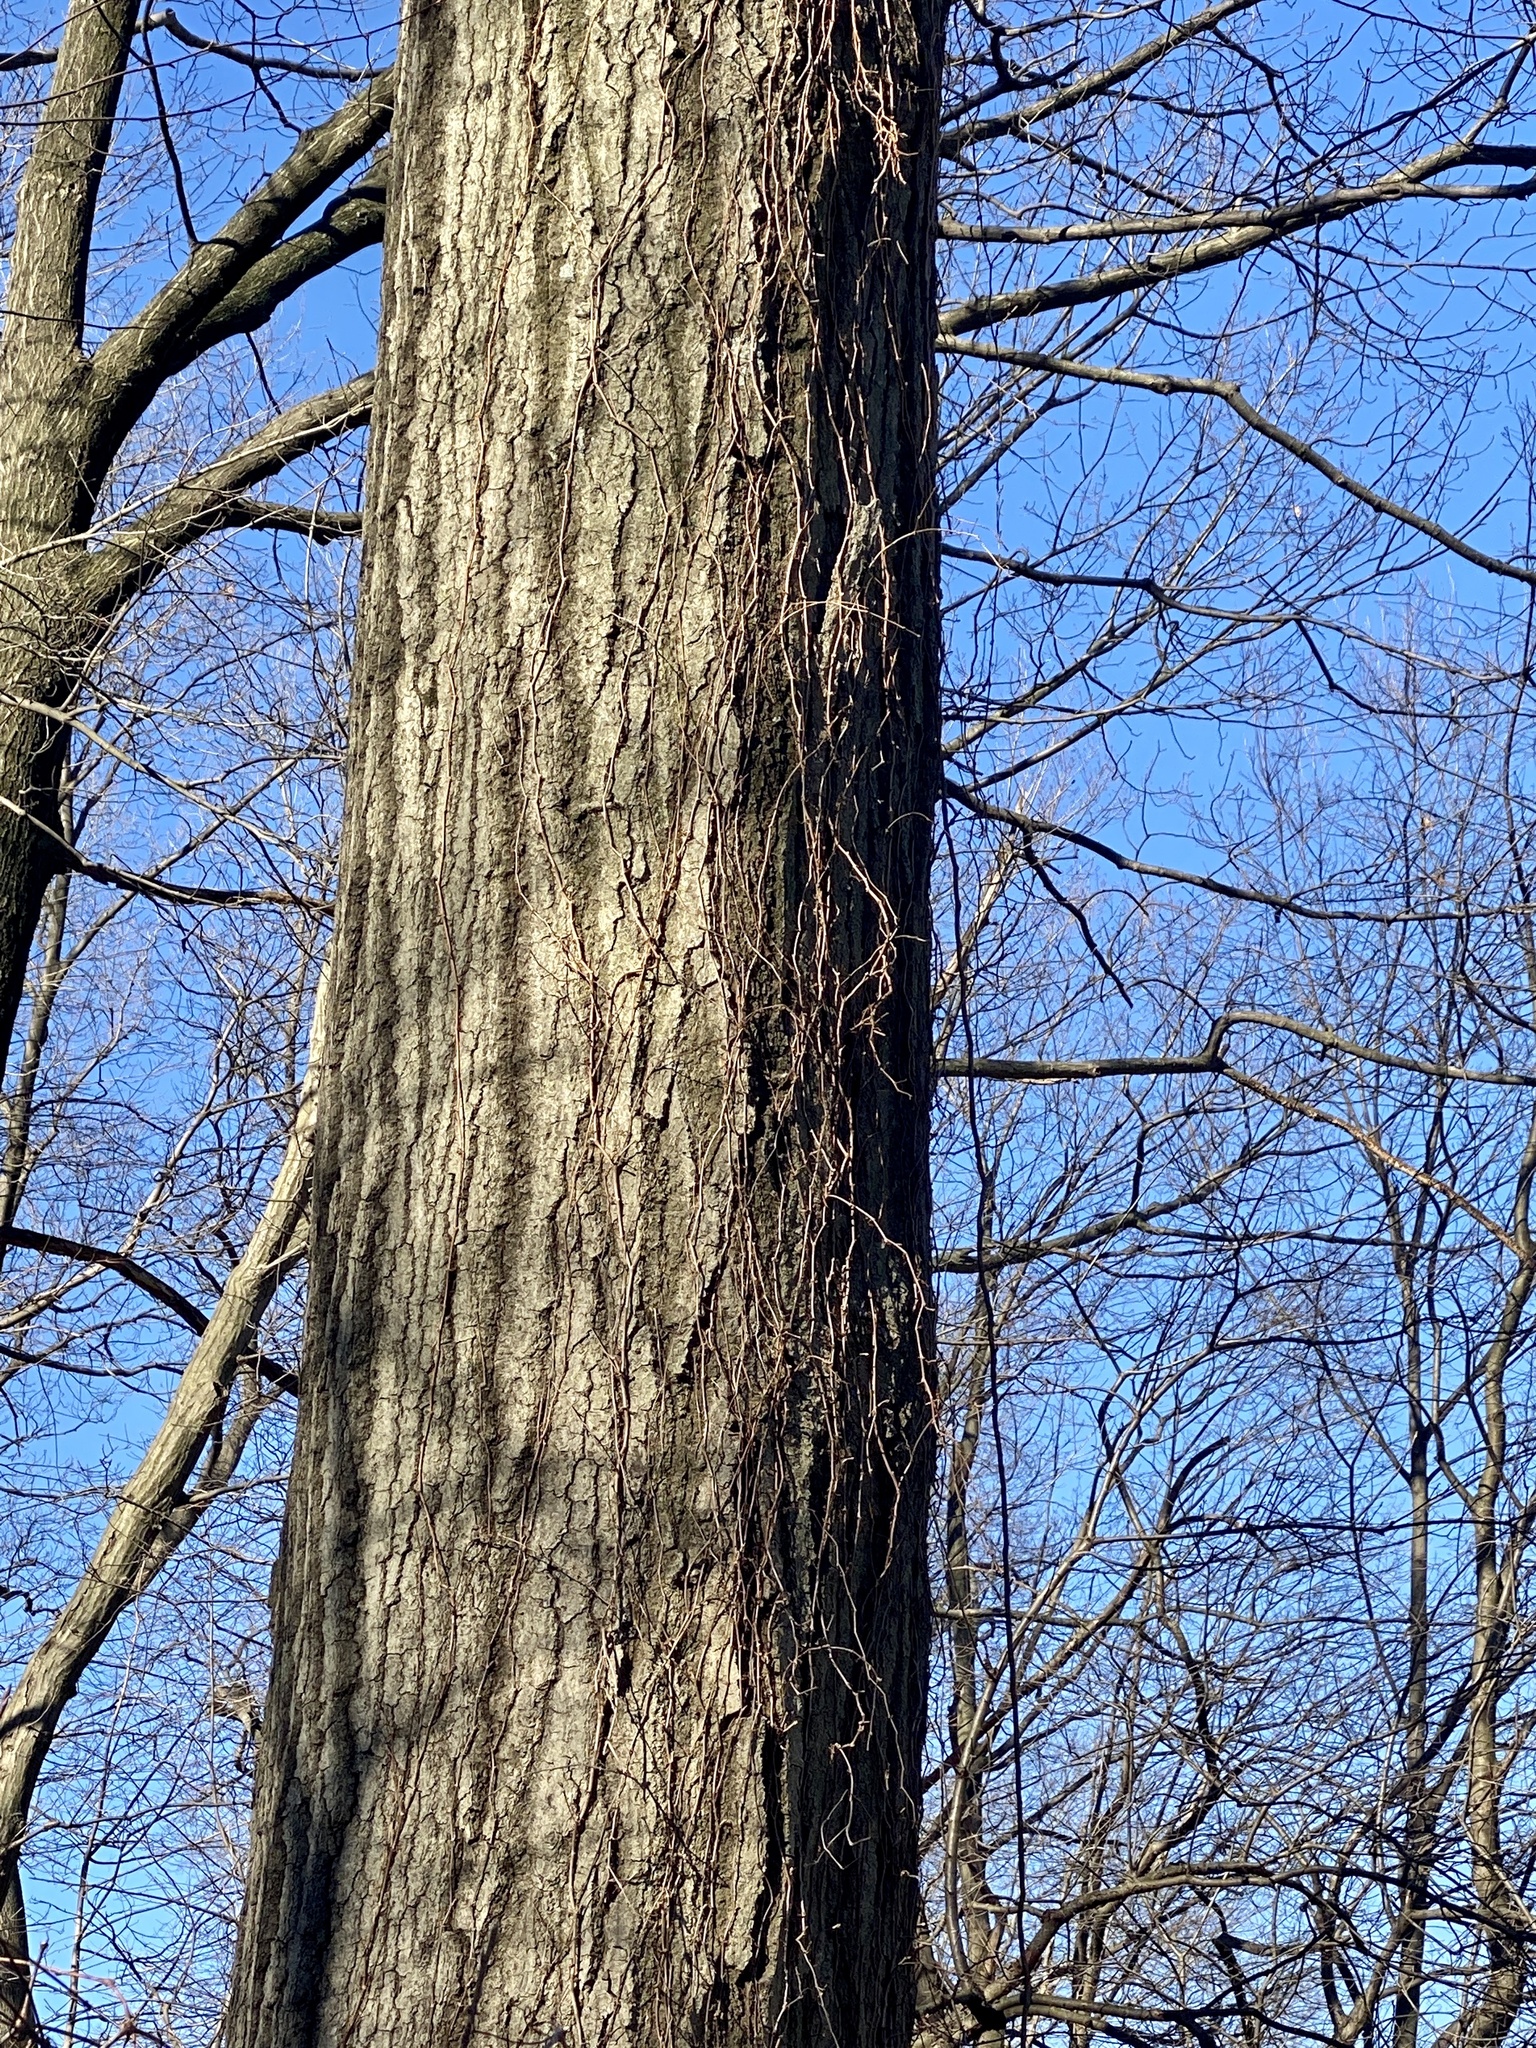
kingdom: Plantae
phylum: Tracheophyta
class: Magnoliopsida
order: Fagales
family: Fagaceae
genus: Quercus
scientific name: Quercus rubra
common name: Red oak
